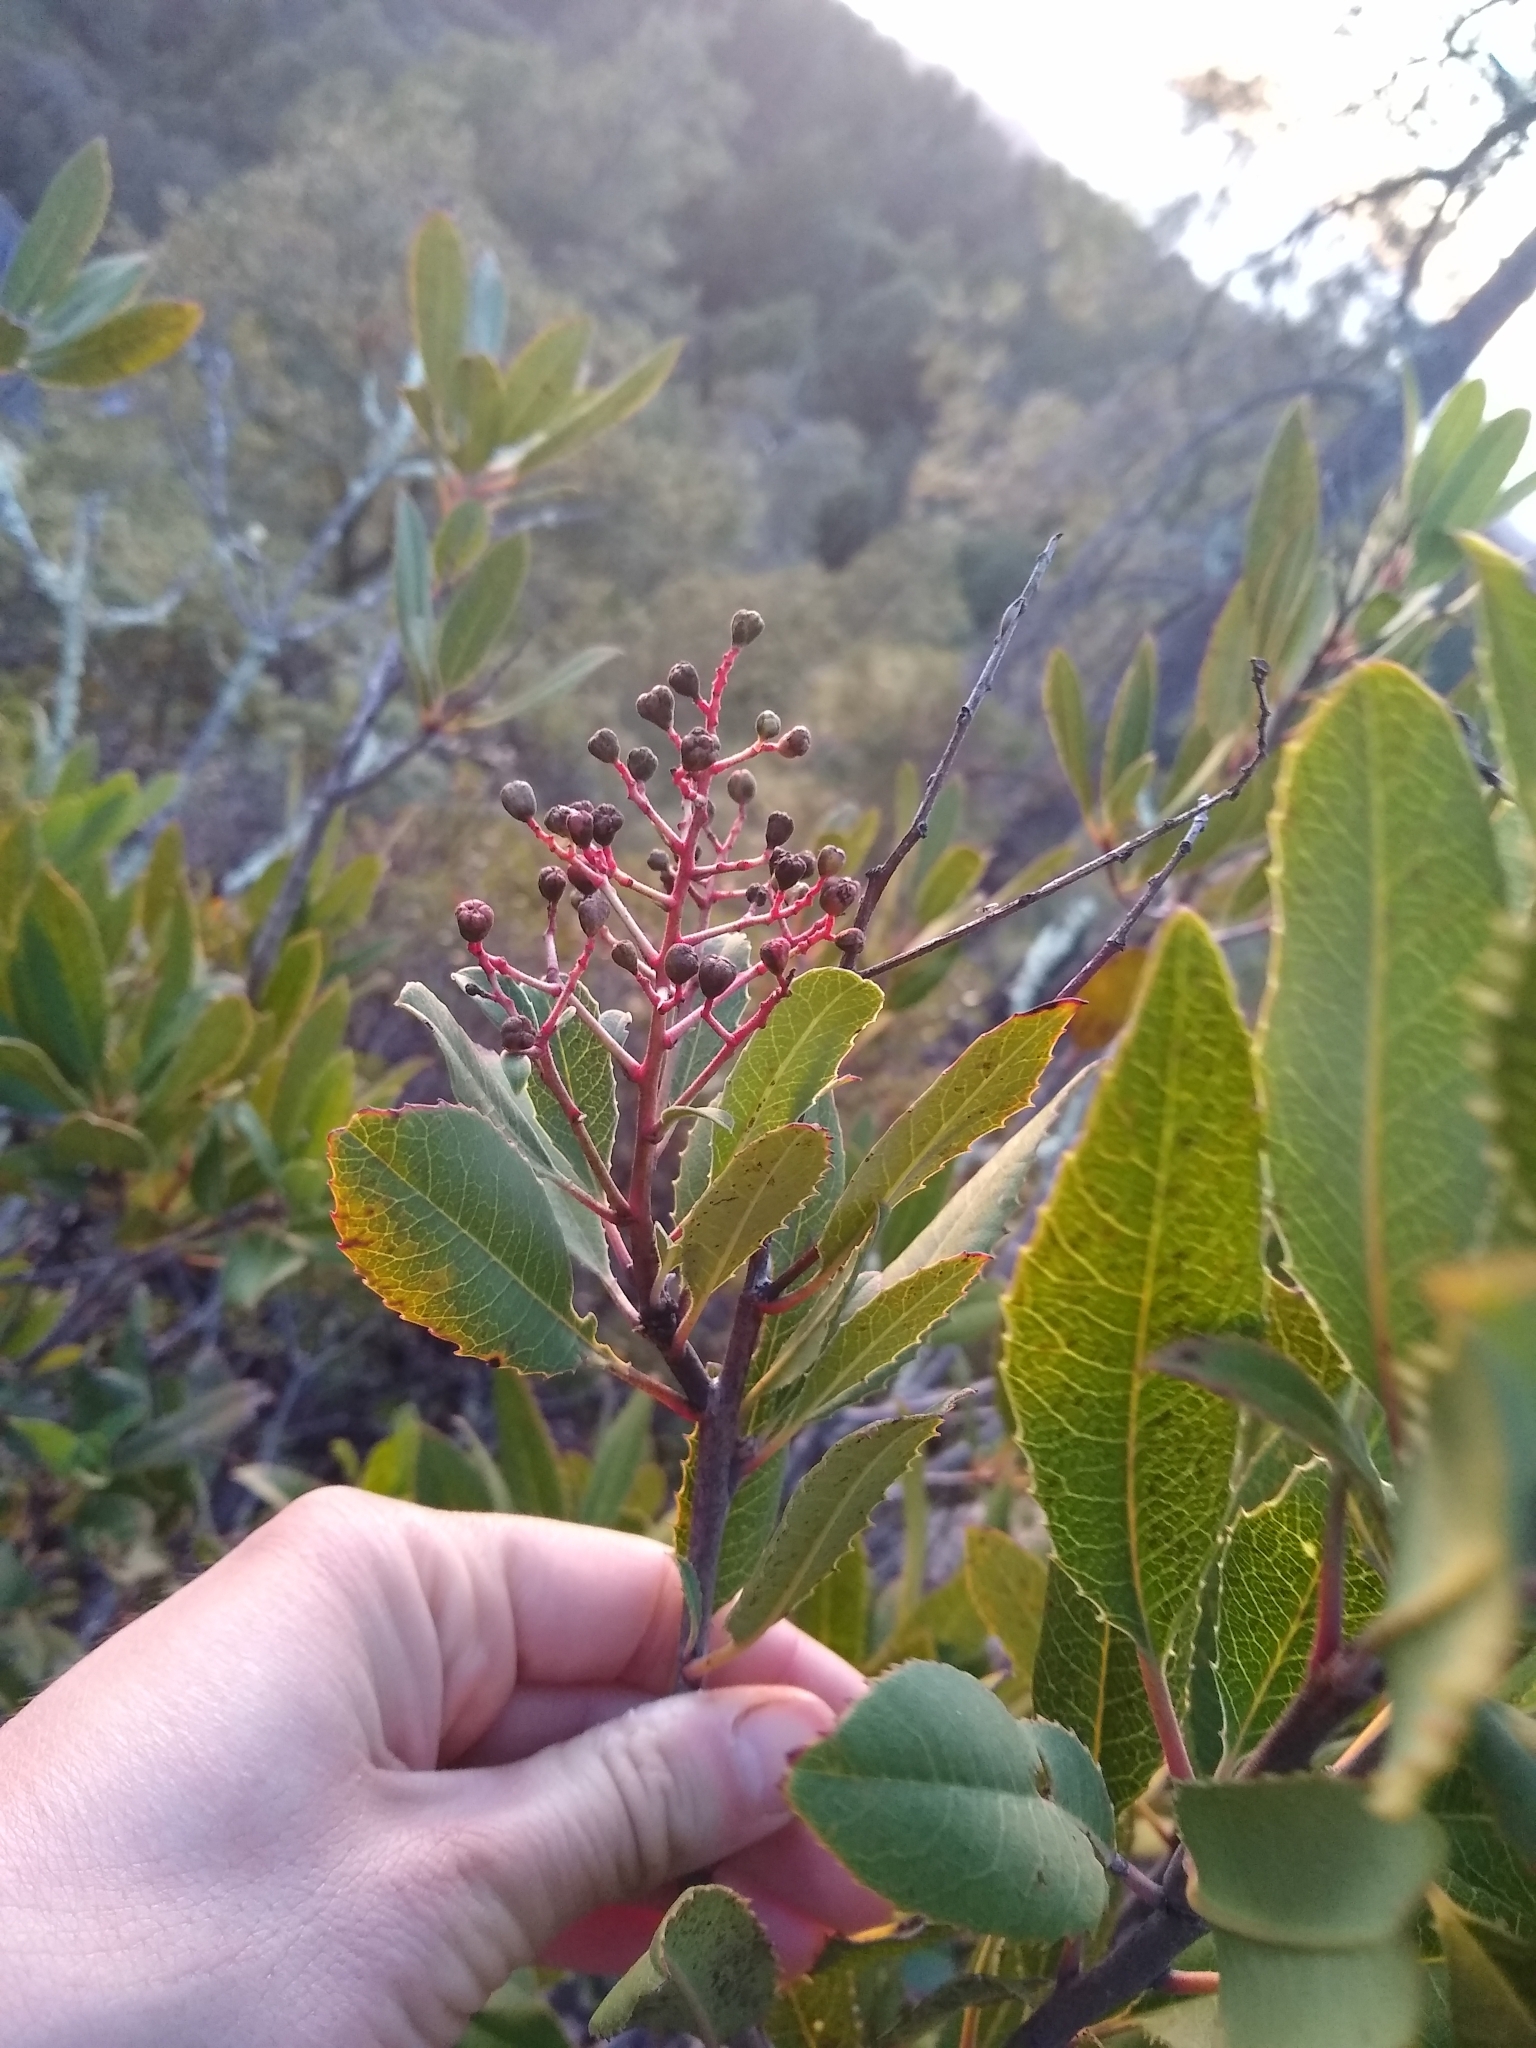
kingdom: Plantae
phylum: Tracheophyta
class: Magnoliopsida
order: Rosales
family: Rosaceae
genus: Heteromeles
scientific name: Heteromeles arbutifolia
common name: California-holly
